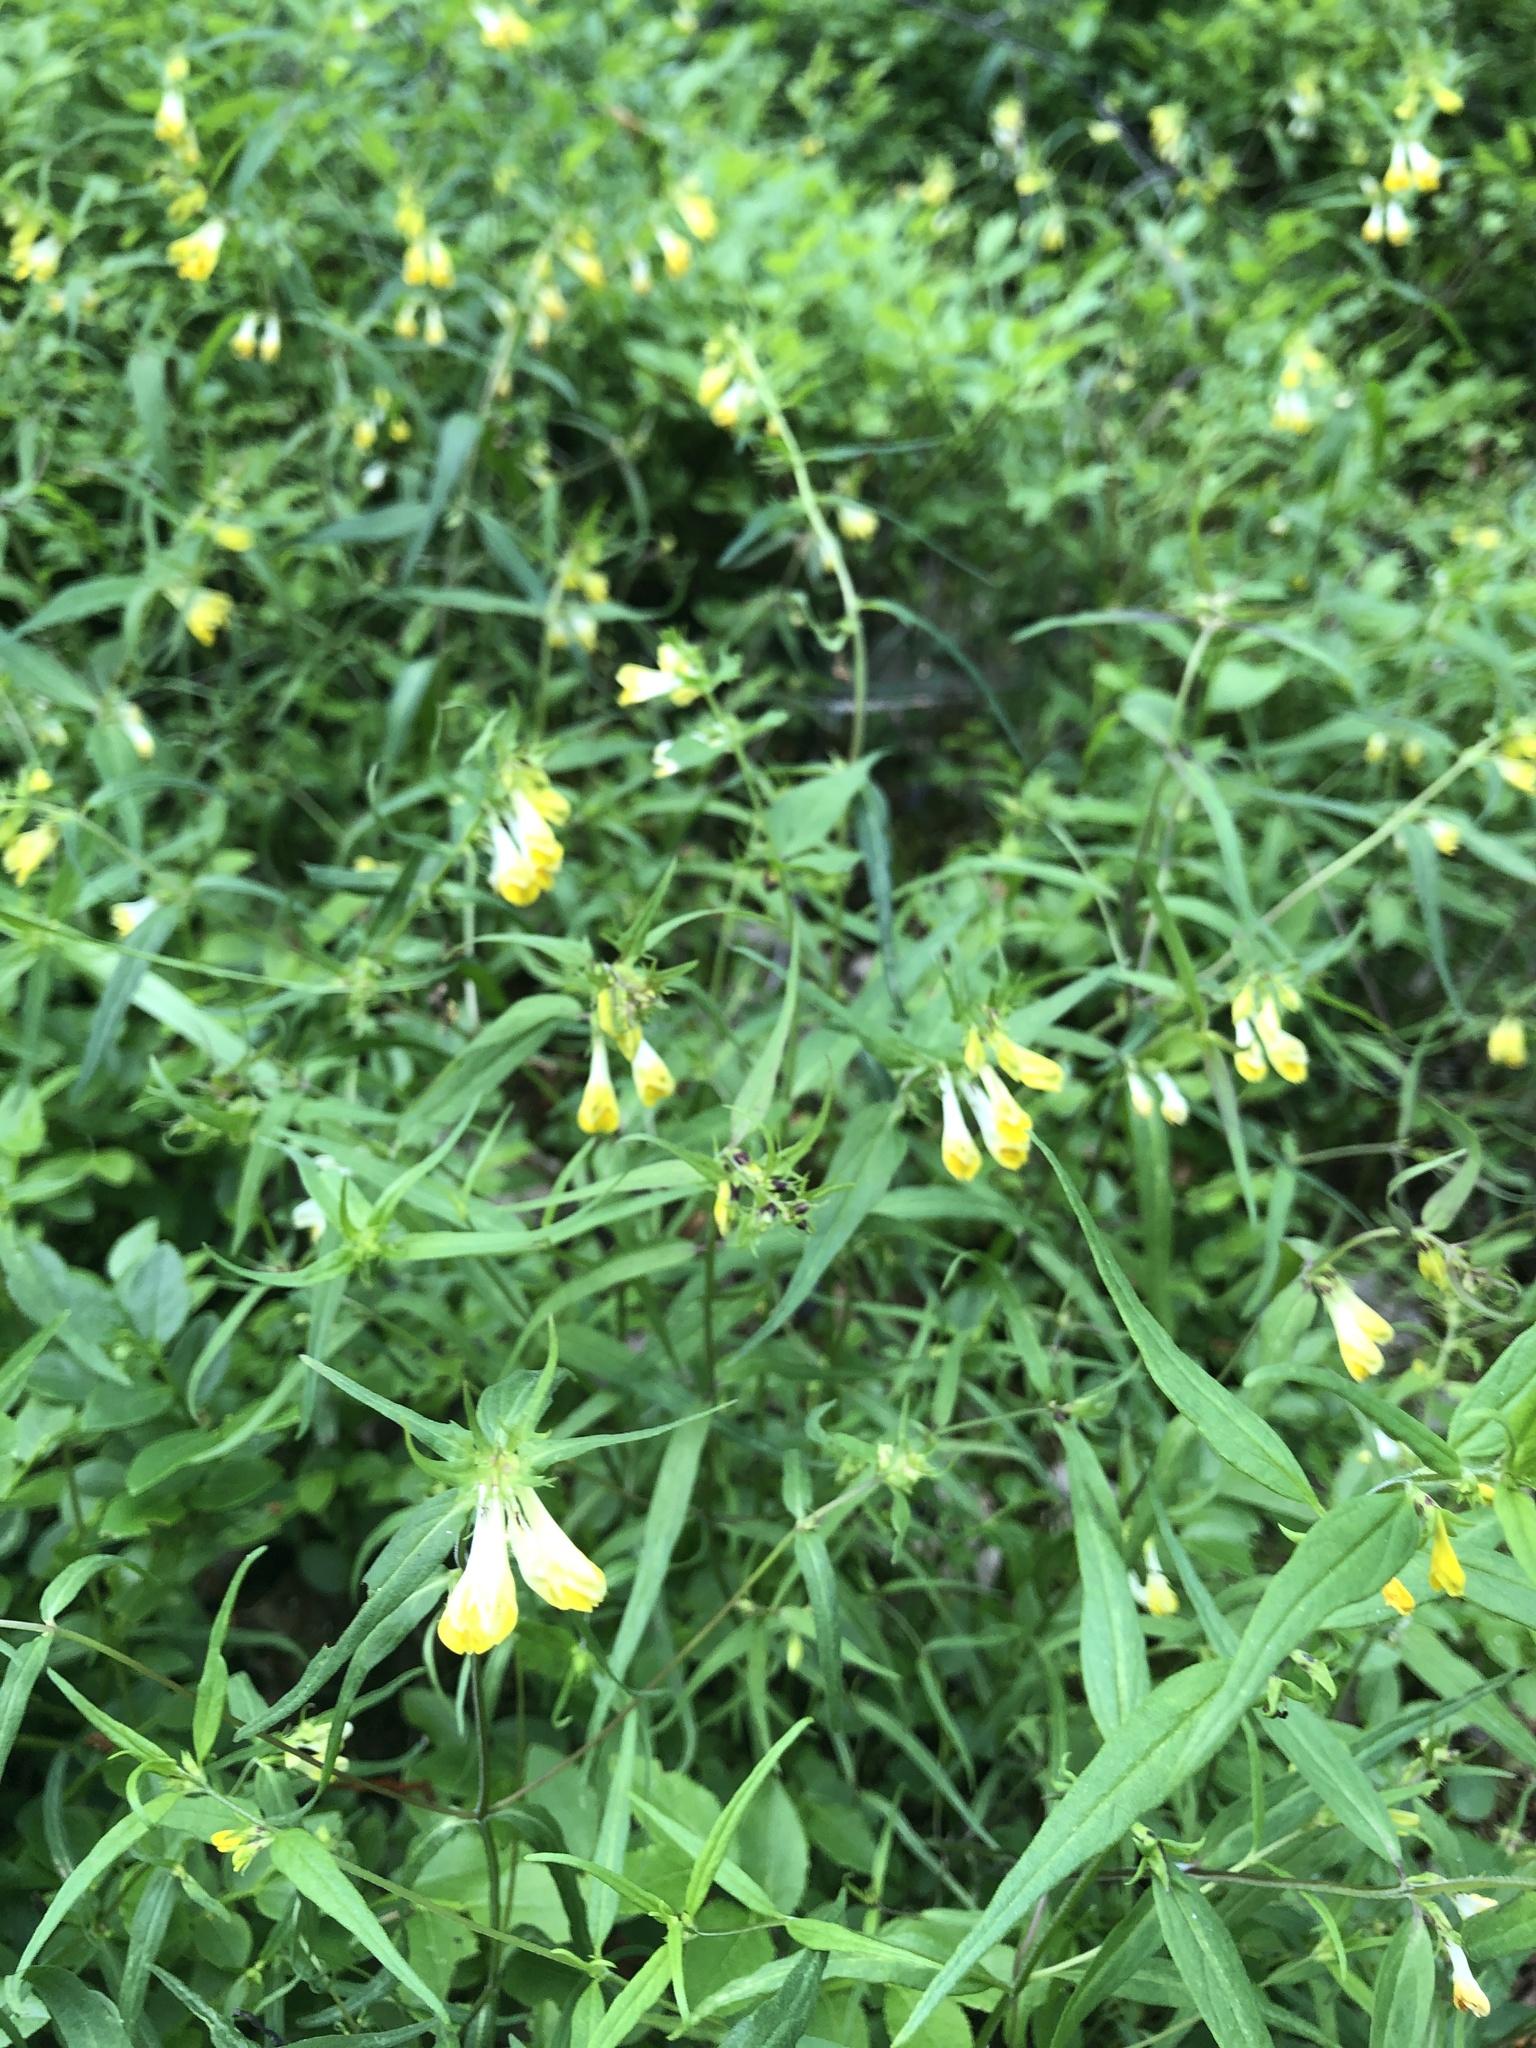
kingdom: Plantae
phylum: Tracheophyta
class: Magnoliopsida
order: Lamiales
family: Orobanchaceae
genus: Melampyrum
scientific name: Melampyrum pratense
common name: Common cow-wheat
